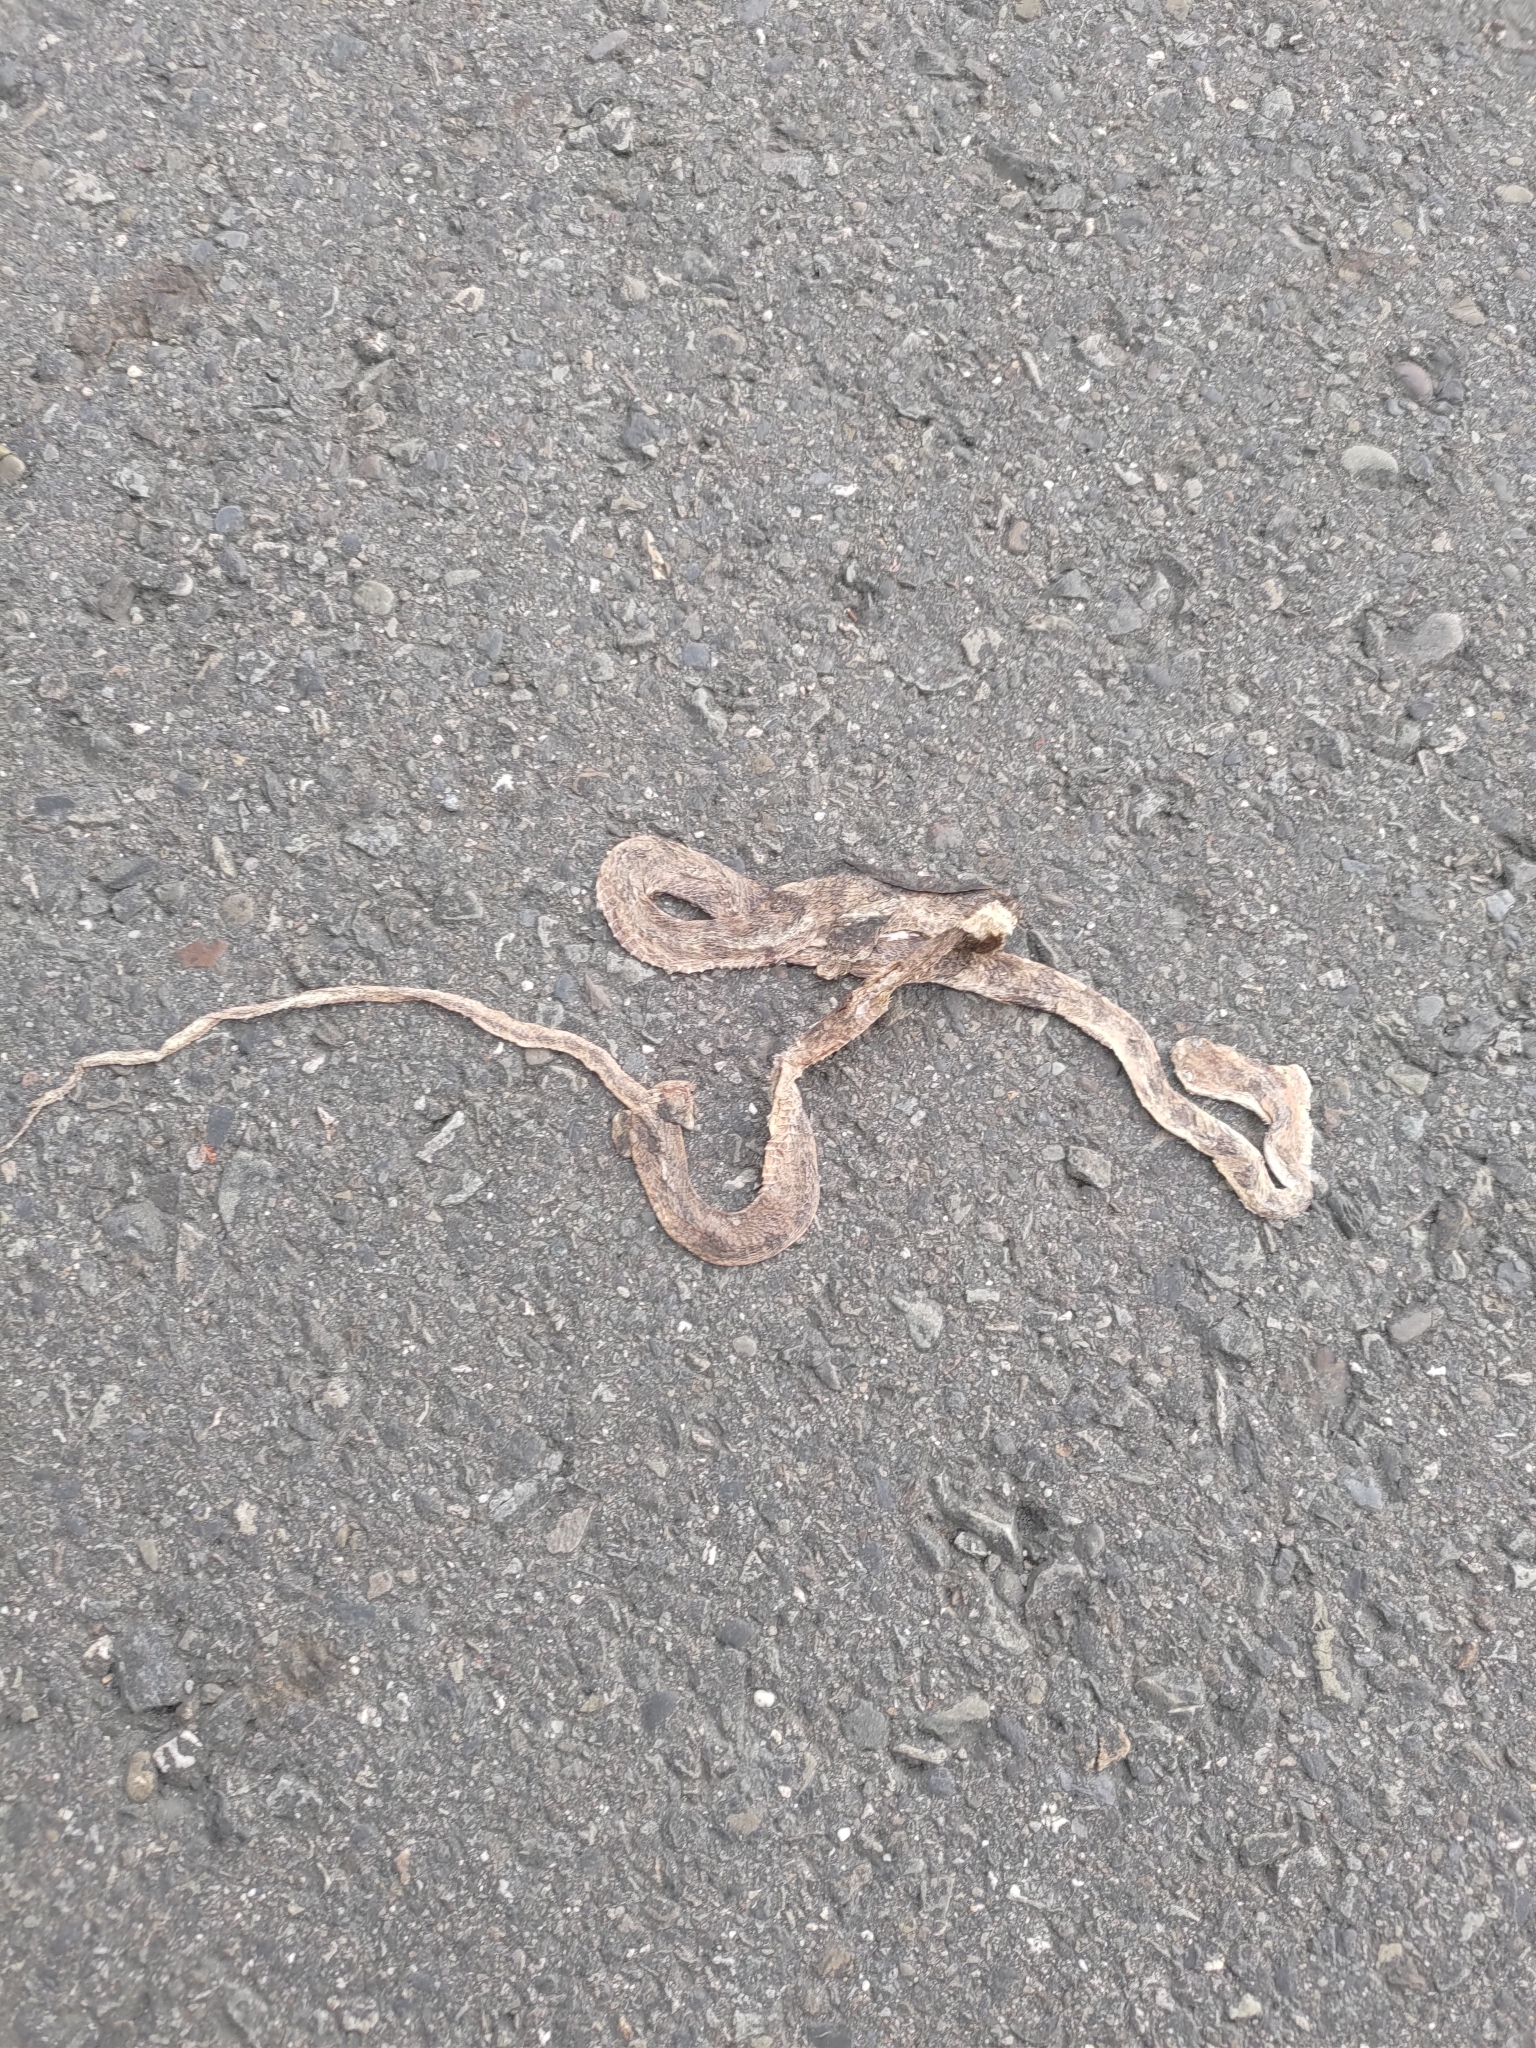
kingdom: Animalia
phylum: Chordata
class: Squamata
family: Colubridae
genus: Boiga
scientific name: Boiga kraepelini
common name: Kelung cat snake
